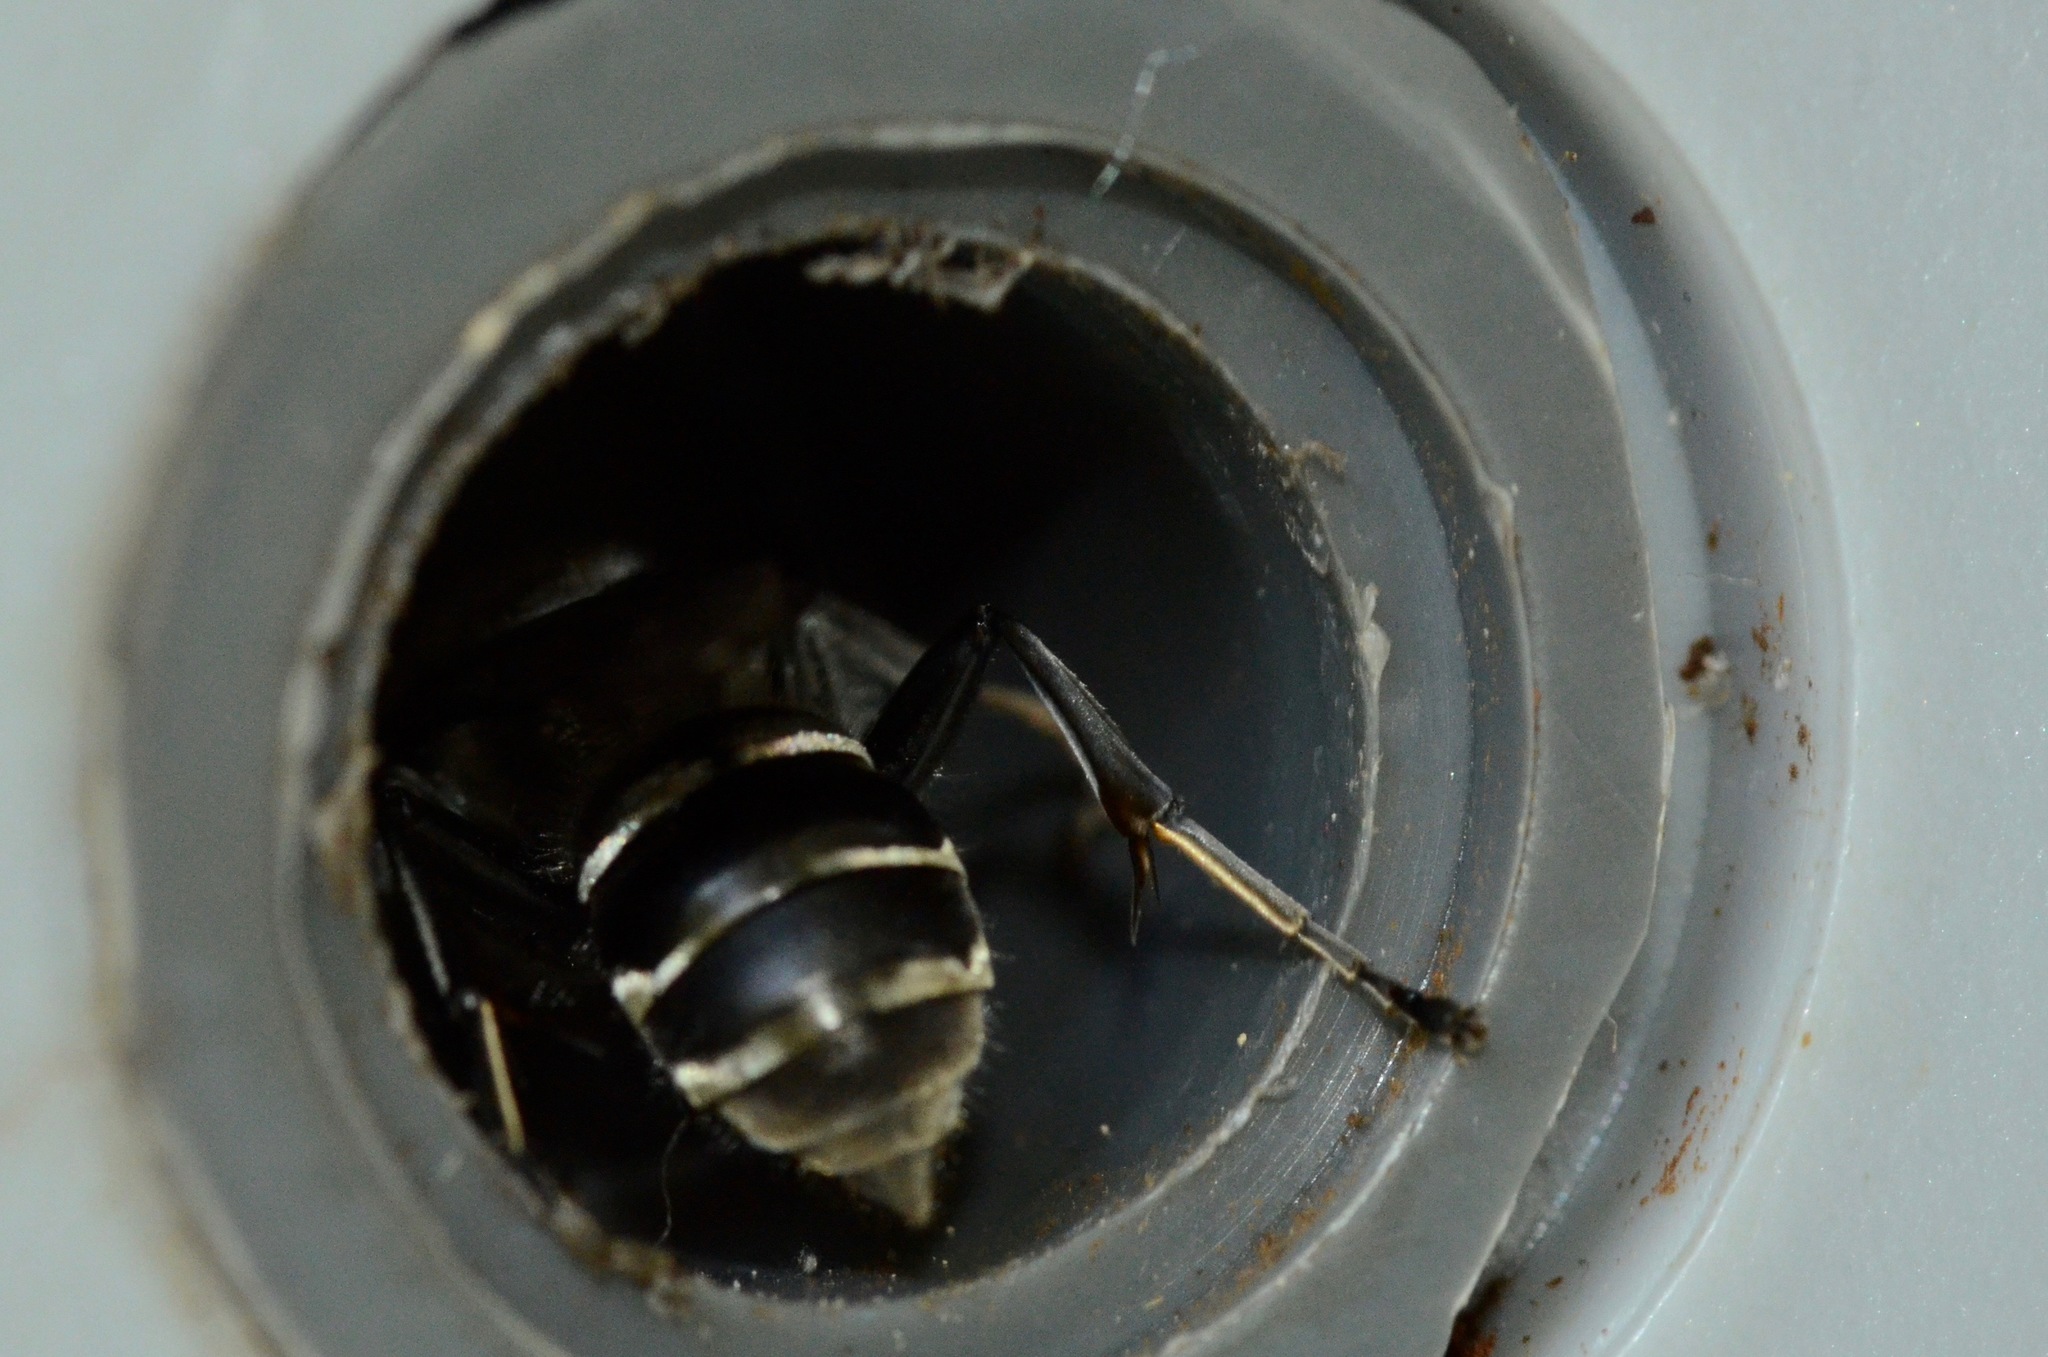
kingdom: Animalia
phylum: Arthropoda
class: Insecta
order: Hymenoptera
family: Crabronidae
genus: Pison
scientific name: Pison spinolae
